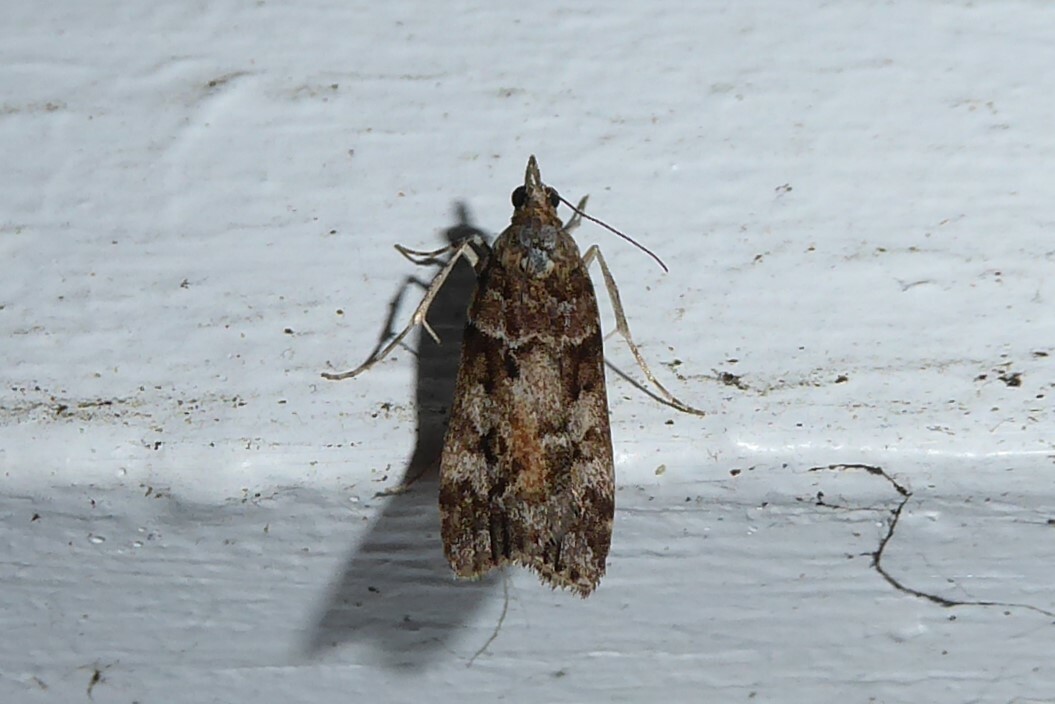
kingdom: Animalia
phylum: Arthropoda
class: Insecta
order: Lepidoptera
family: Crambidae
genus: Eudonia
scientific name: Eudonia submarginalis
